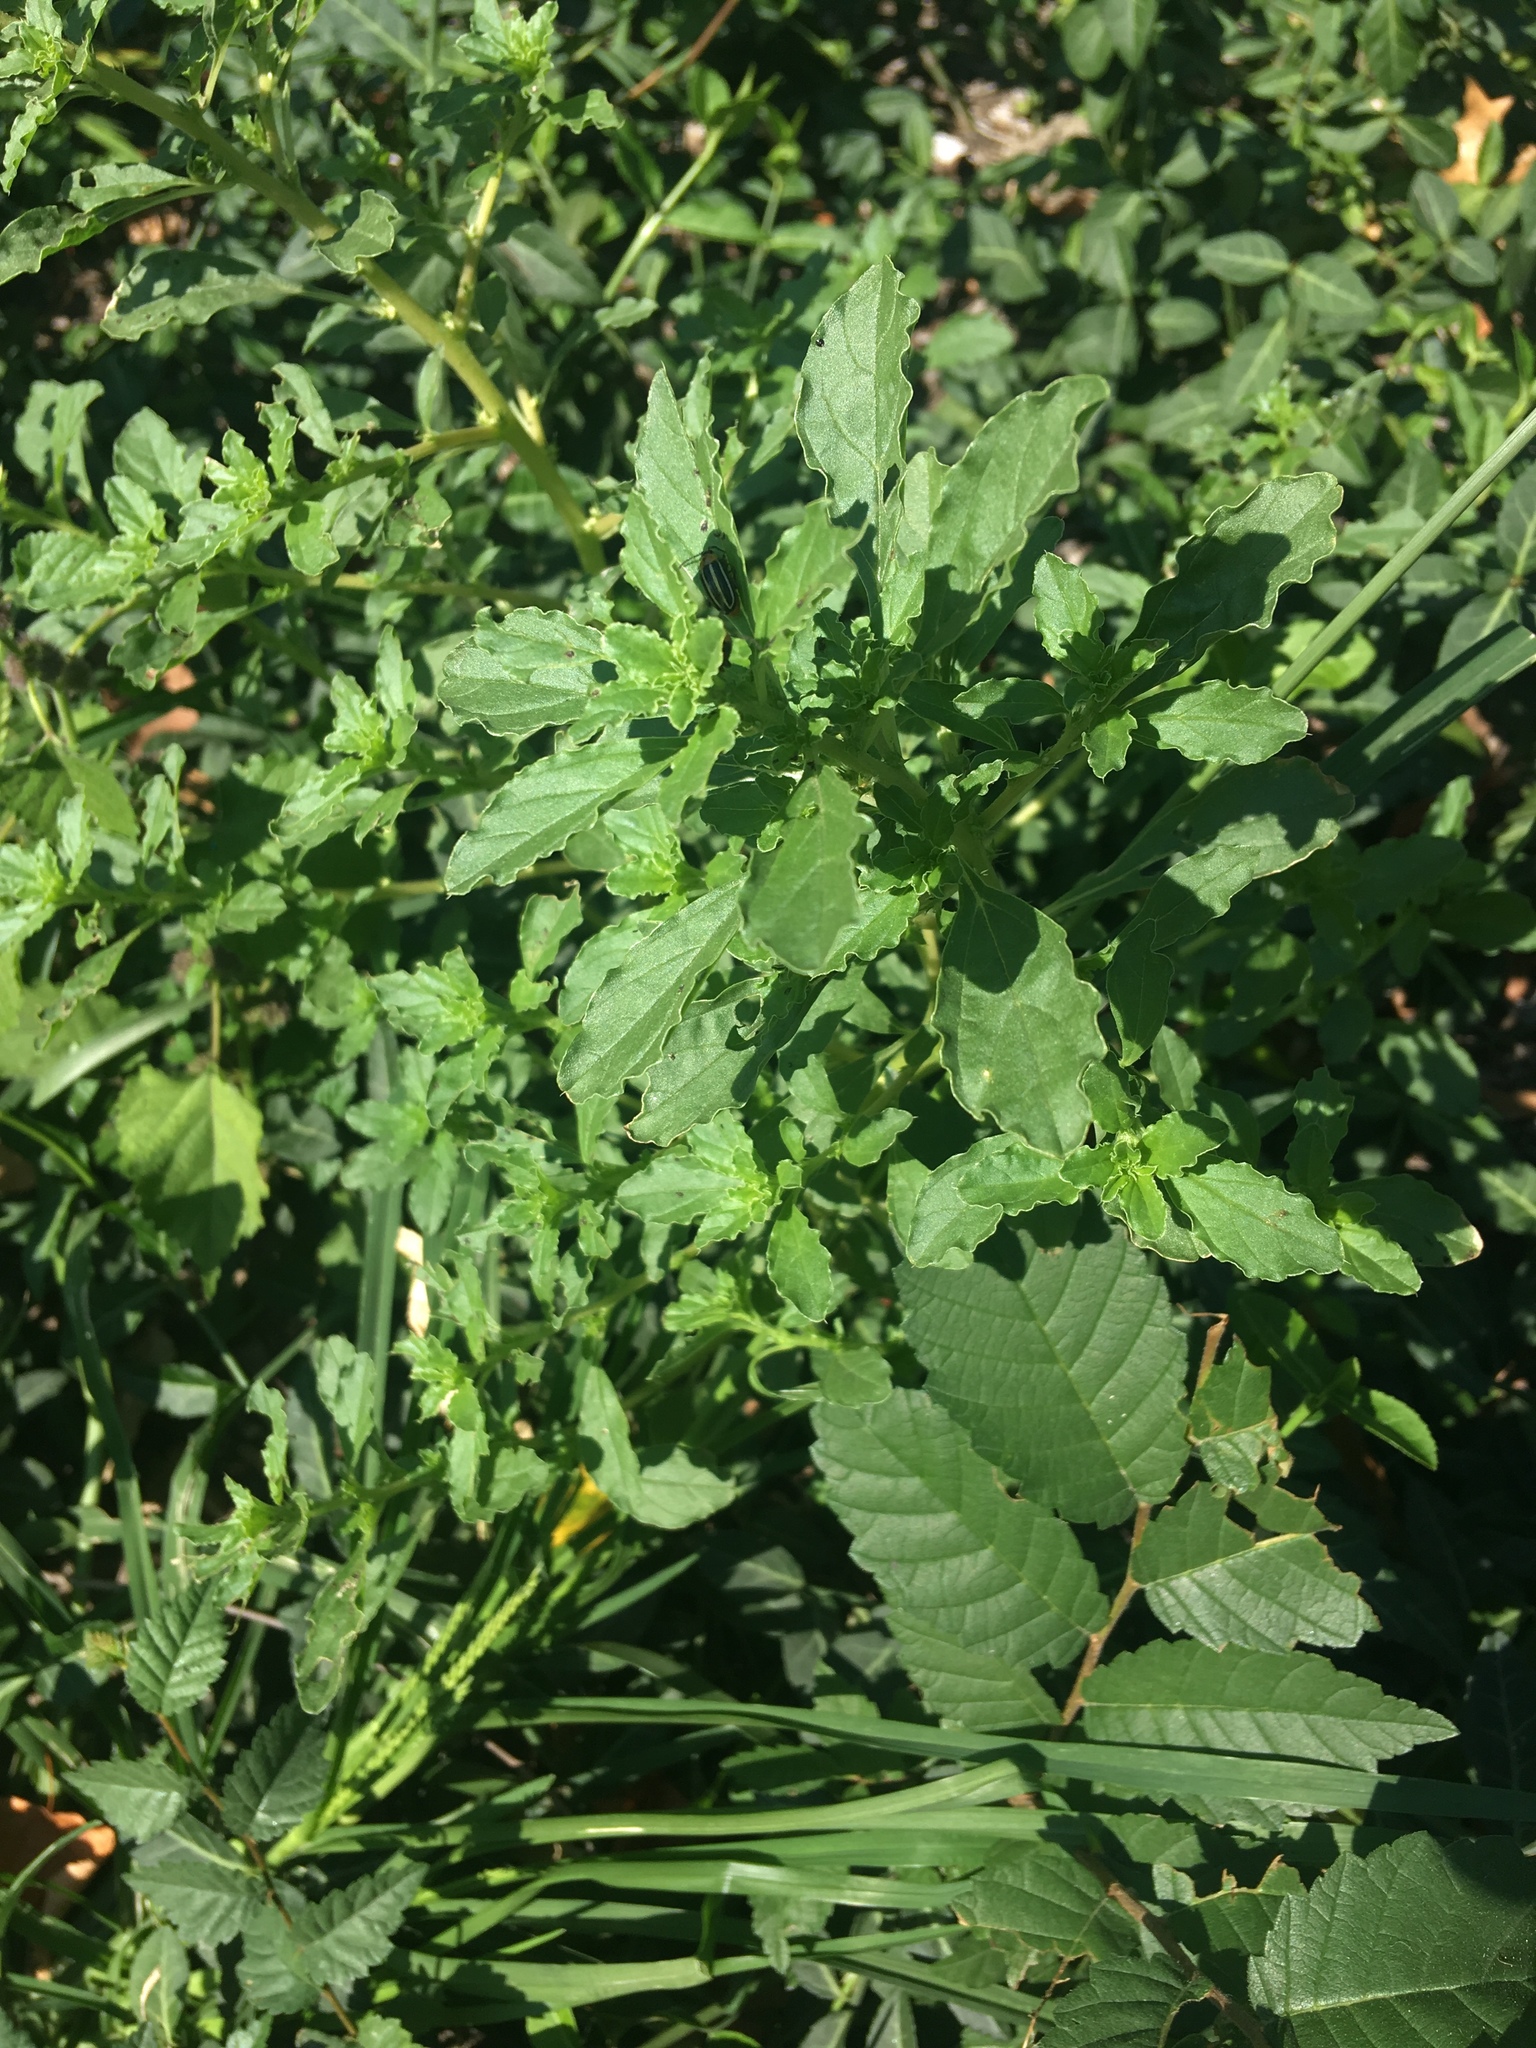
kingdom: Plantae
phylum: Tracheophyta
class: Magnoliopsida
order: Caryophyllales
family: Amaranthaceae
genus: Chenopodium
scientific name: Chenopodium album
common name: Fat-hen
